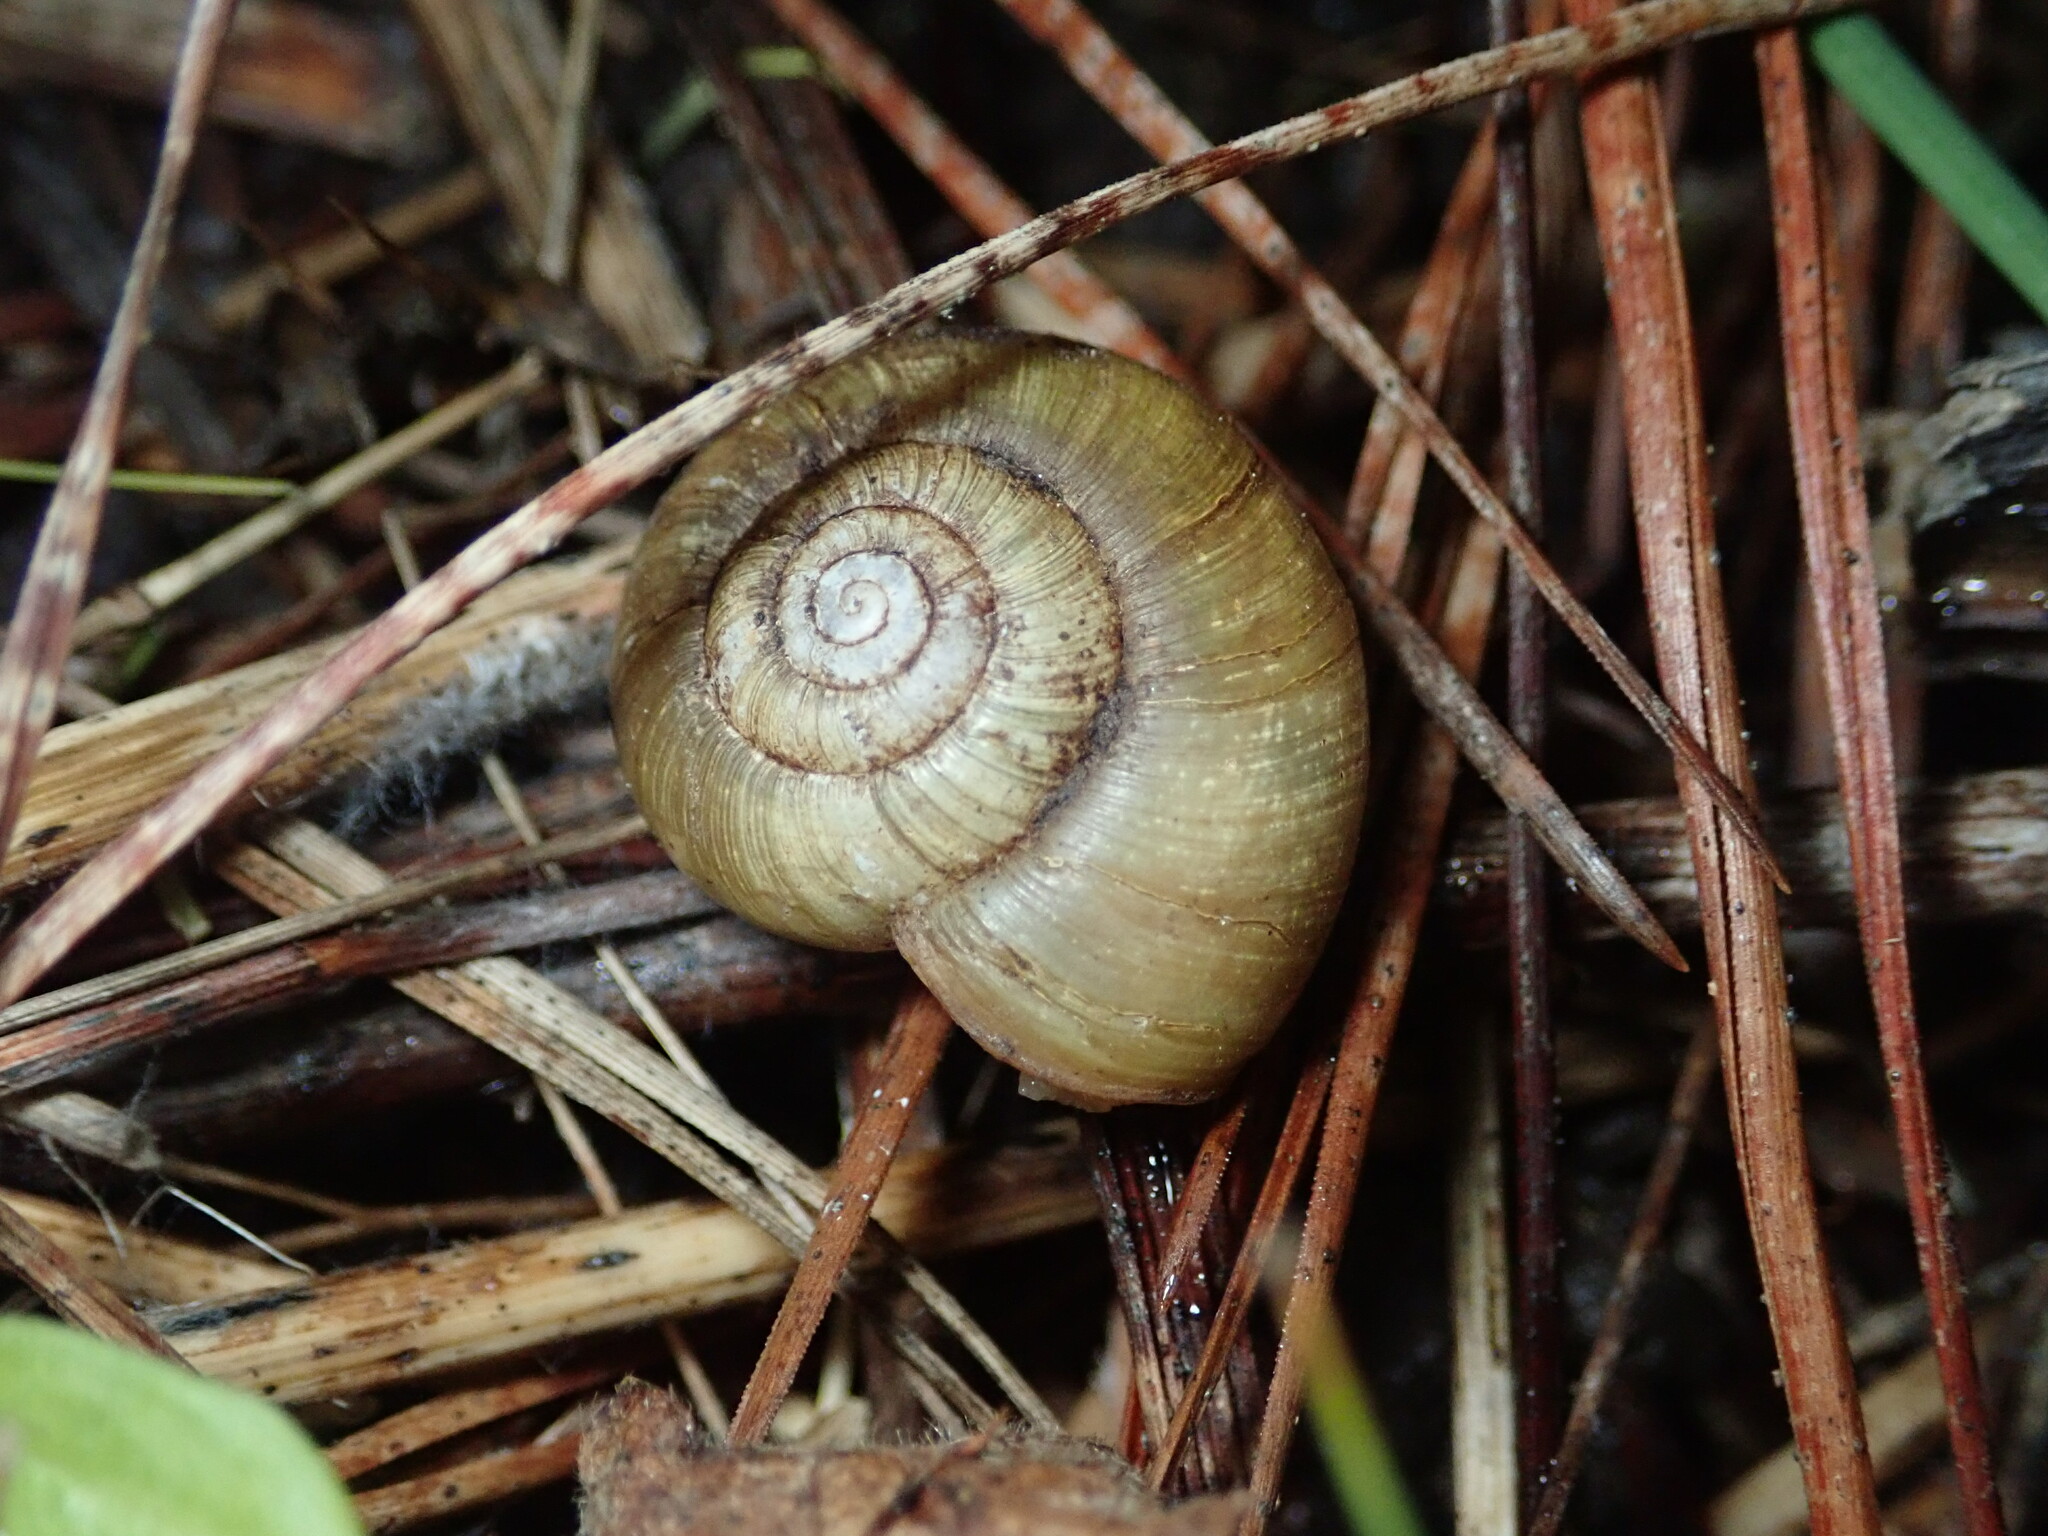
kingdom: Animalia
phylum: Mollusca
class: Gastropoda
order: Stylommatophora
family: Haplotrematidae
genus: Haplotrema
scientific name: Haplotrema minimum
